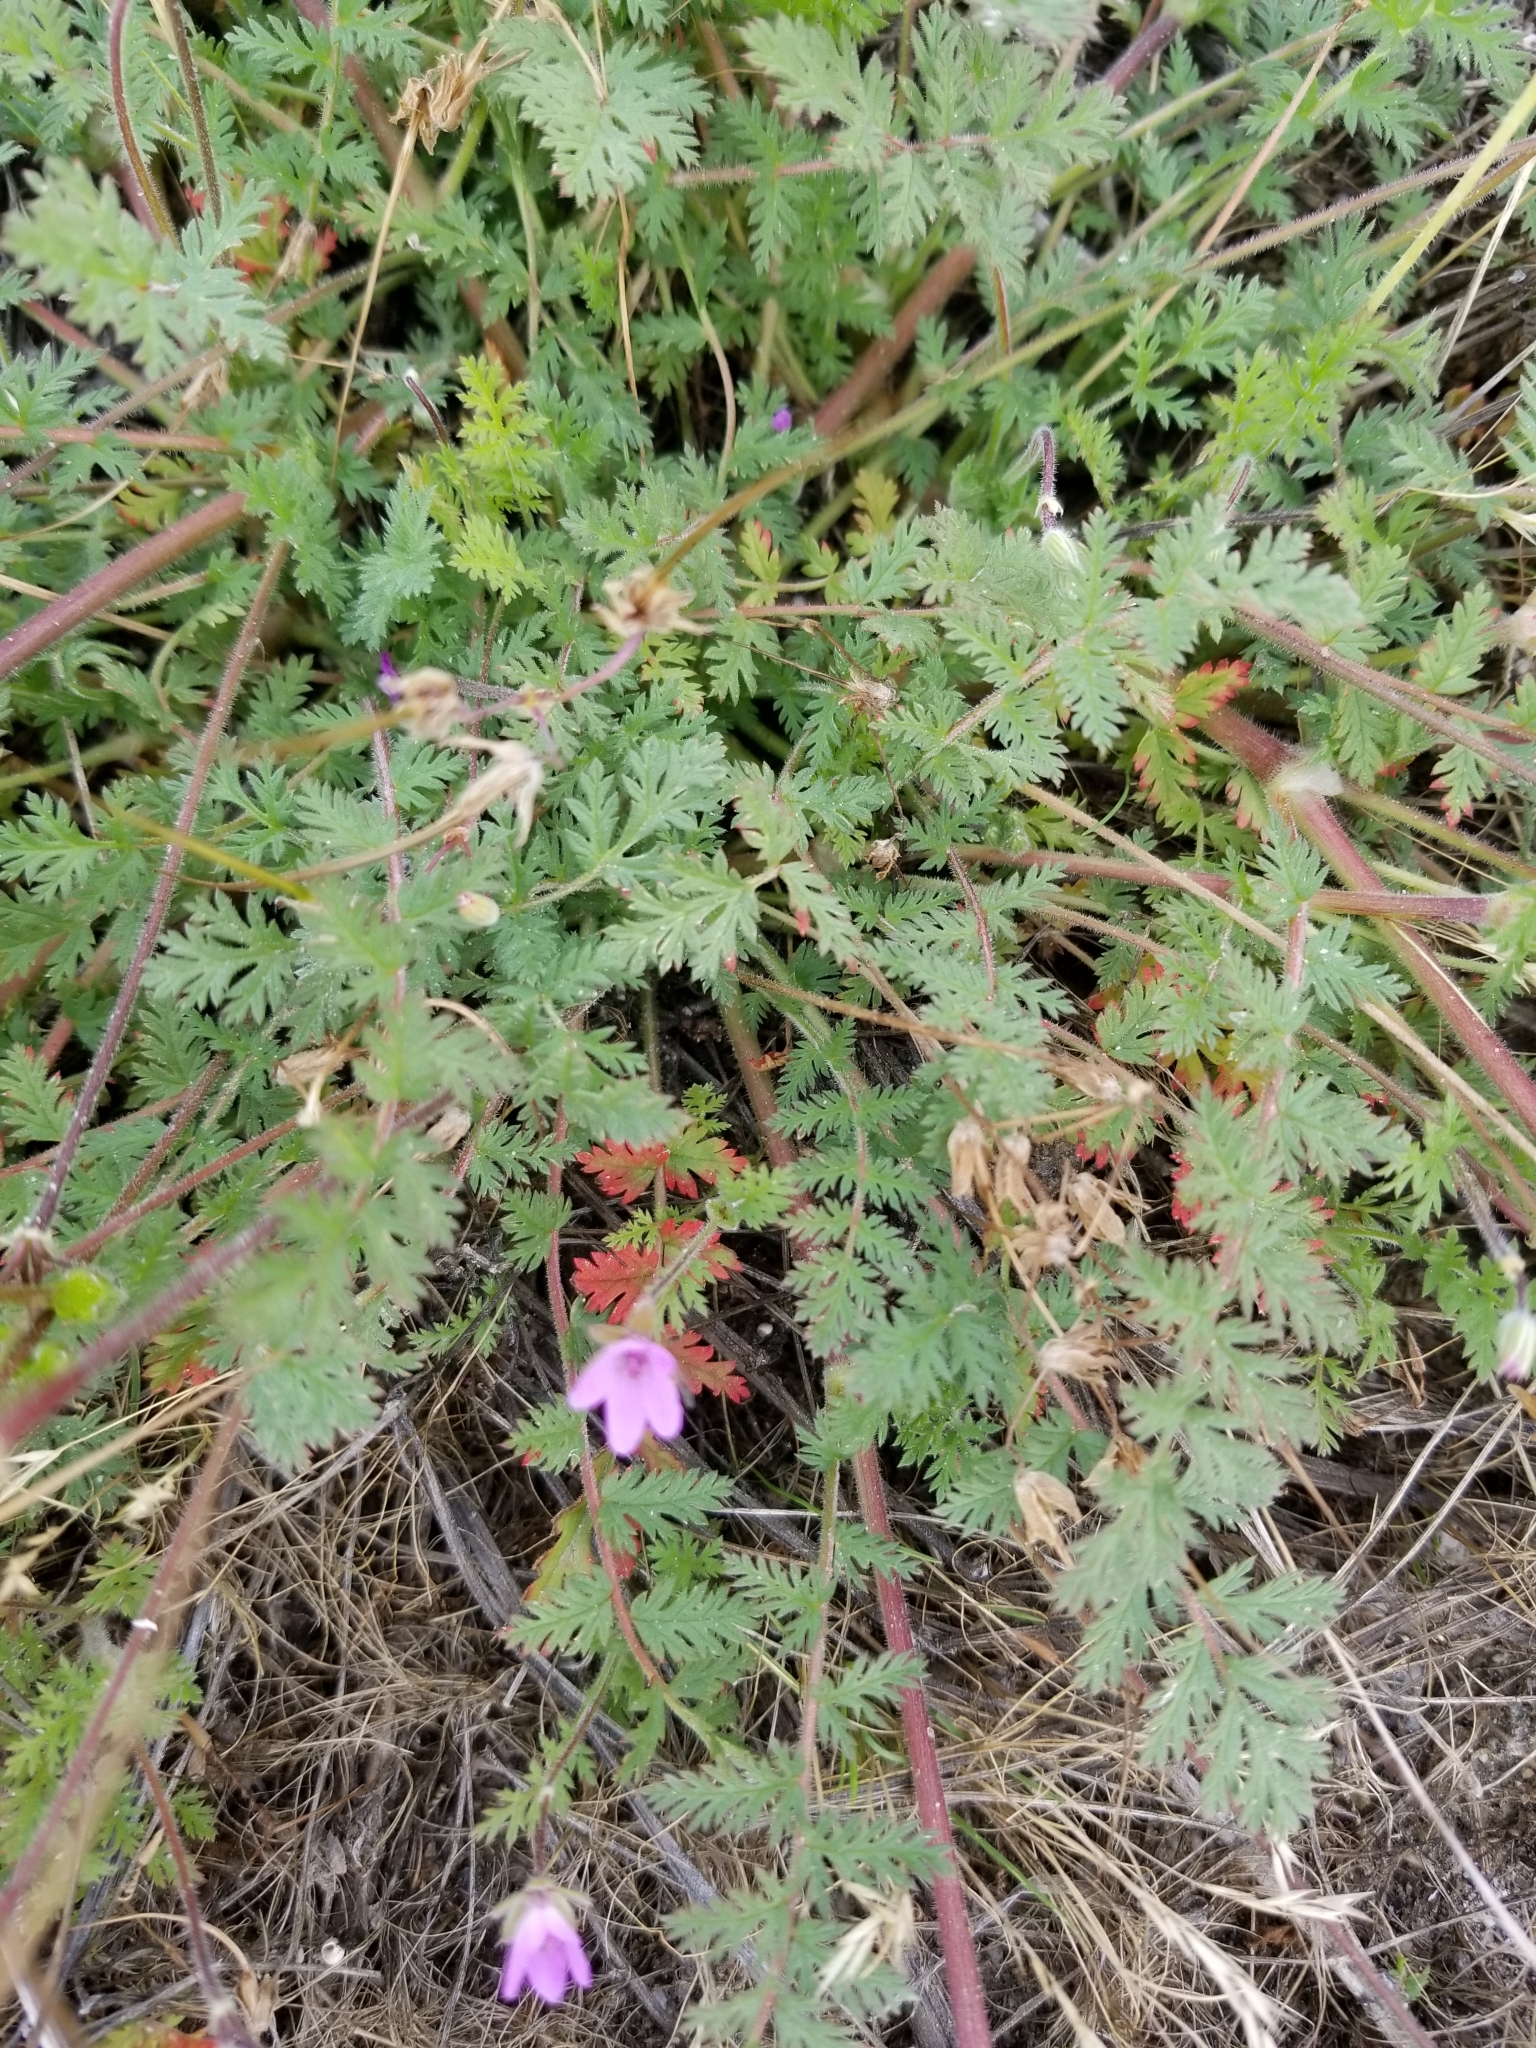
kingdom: Plantae
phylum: Tracheophyta
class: Magnoliopsida
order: Geraniales
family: Geraniaceae
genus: Erodium
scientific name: Erodium cicutarium
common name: Common stork's-bill
